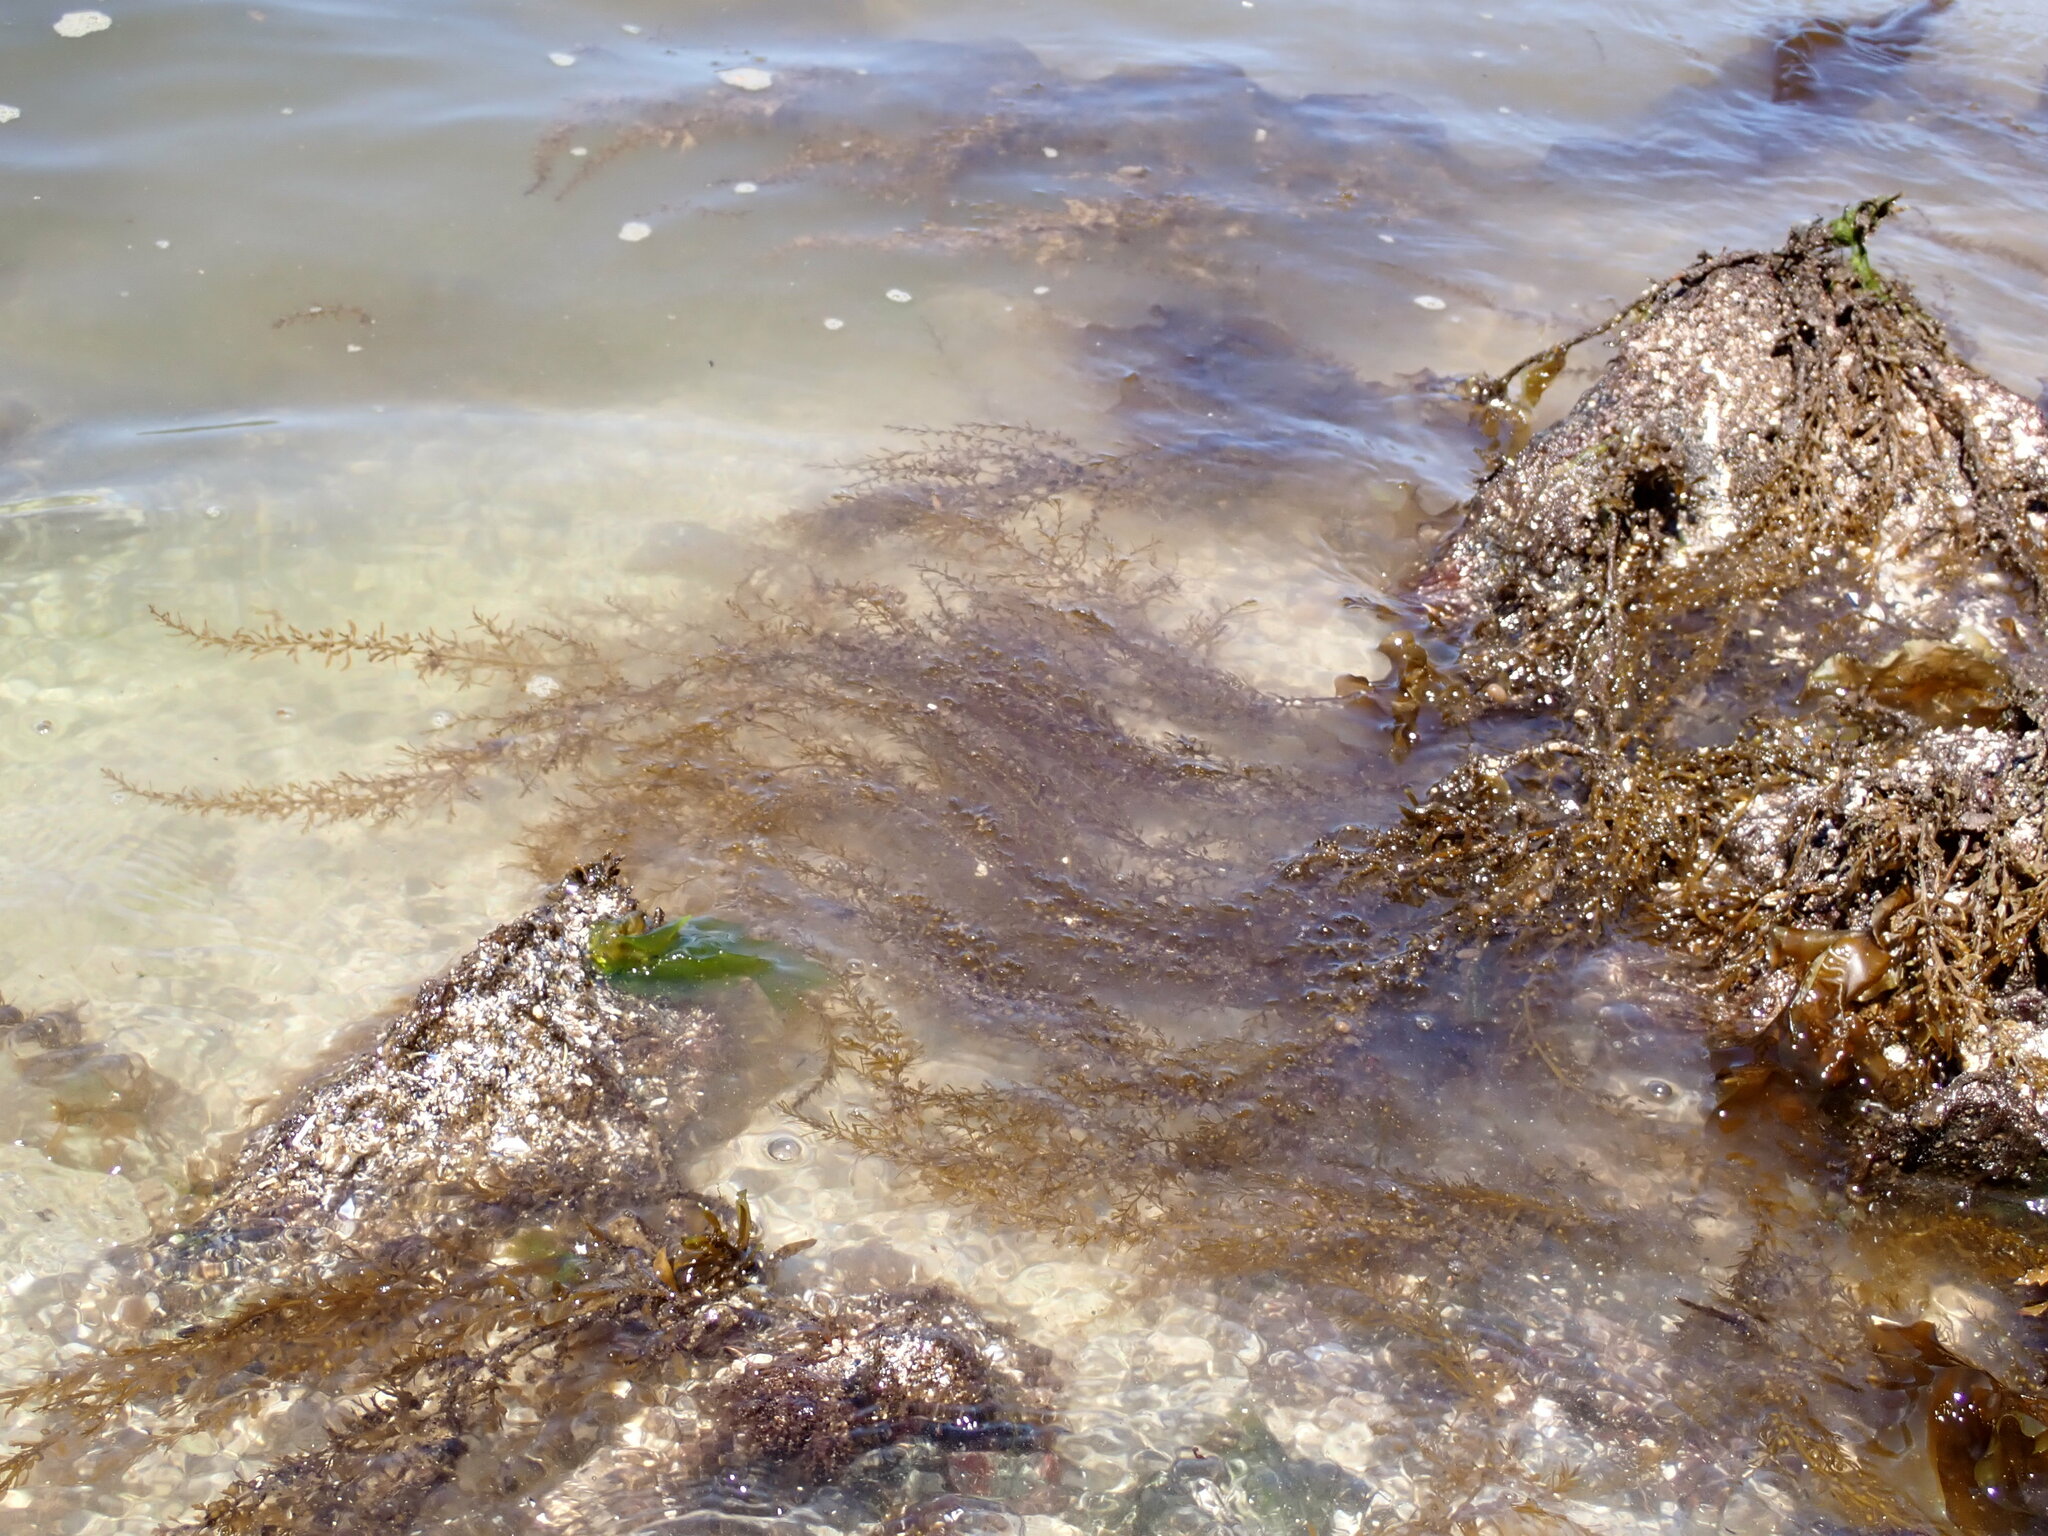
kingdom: Chromista
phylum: Ochrophyta
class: Phaeophyceae
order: Fucales
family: Sargassaceae
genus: Sargassum
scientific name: Sargassum muticum
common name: Japweed
